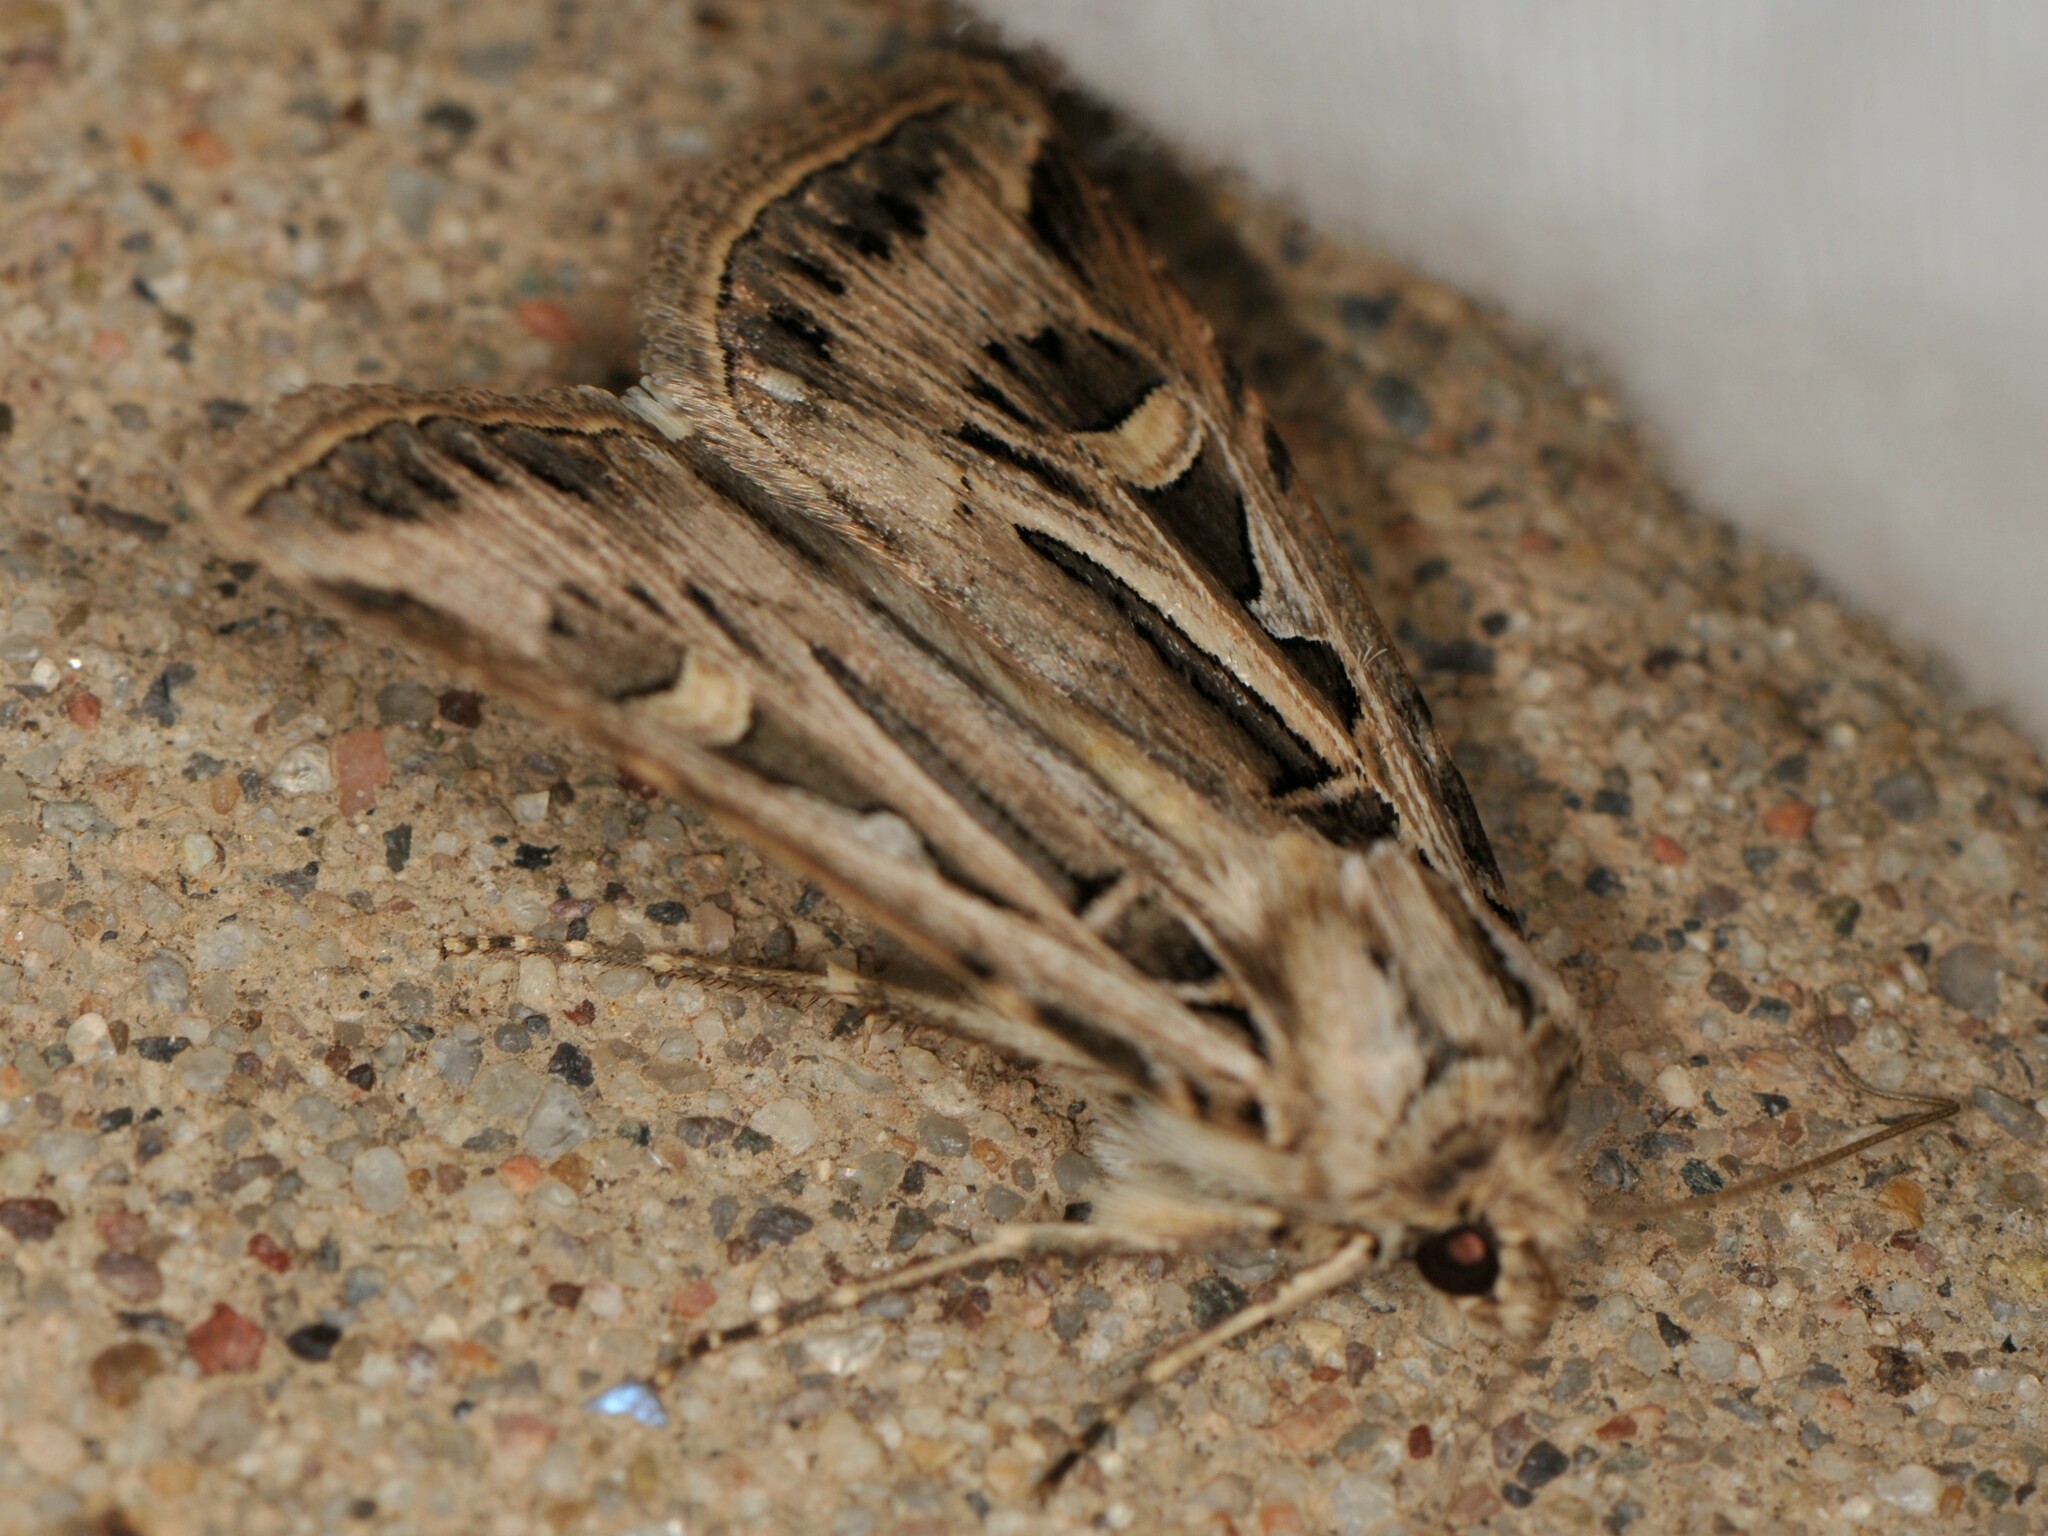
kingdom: Animalia
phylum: Arthropoda
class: Insecta
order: Lepidoptera
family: Noctuidae
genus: Feltia
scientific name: Feltia jaculifera
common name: Dingy cutworm moth
